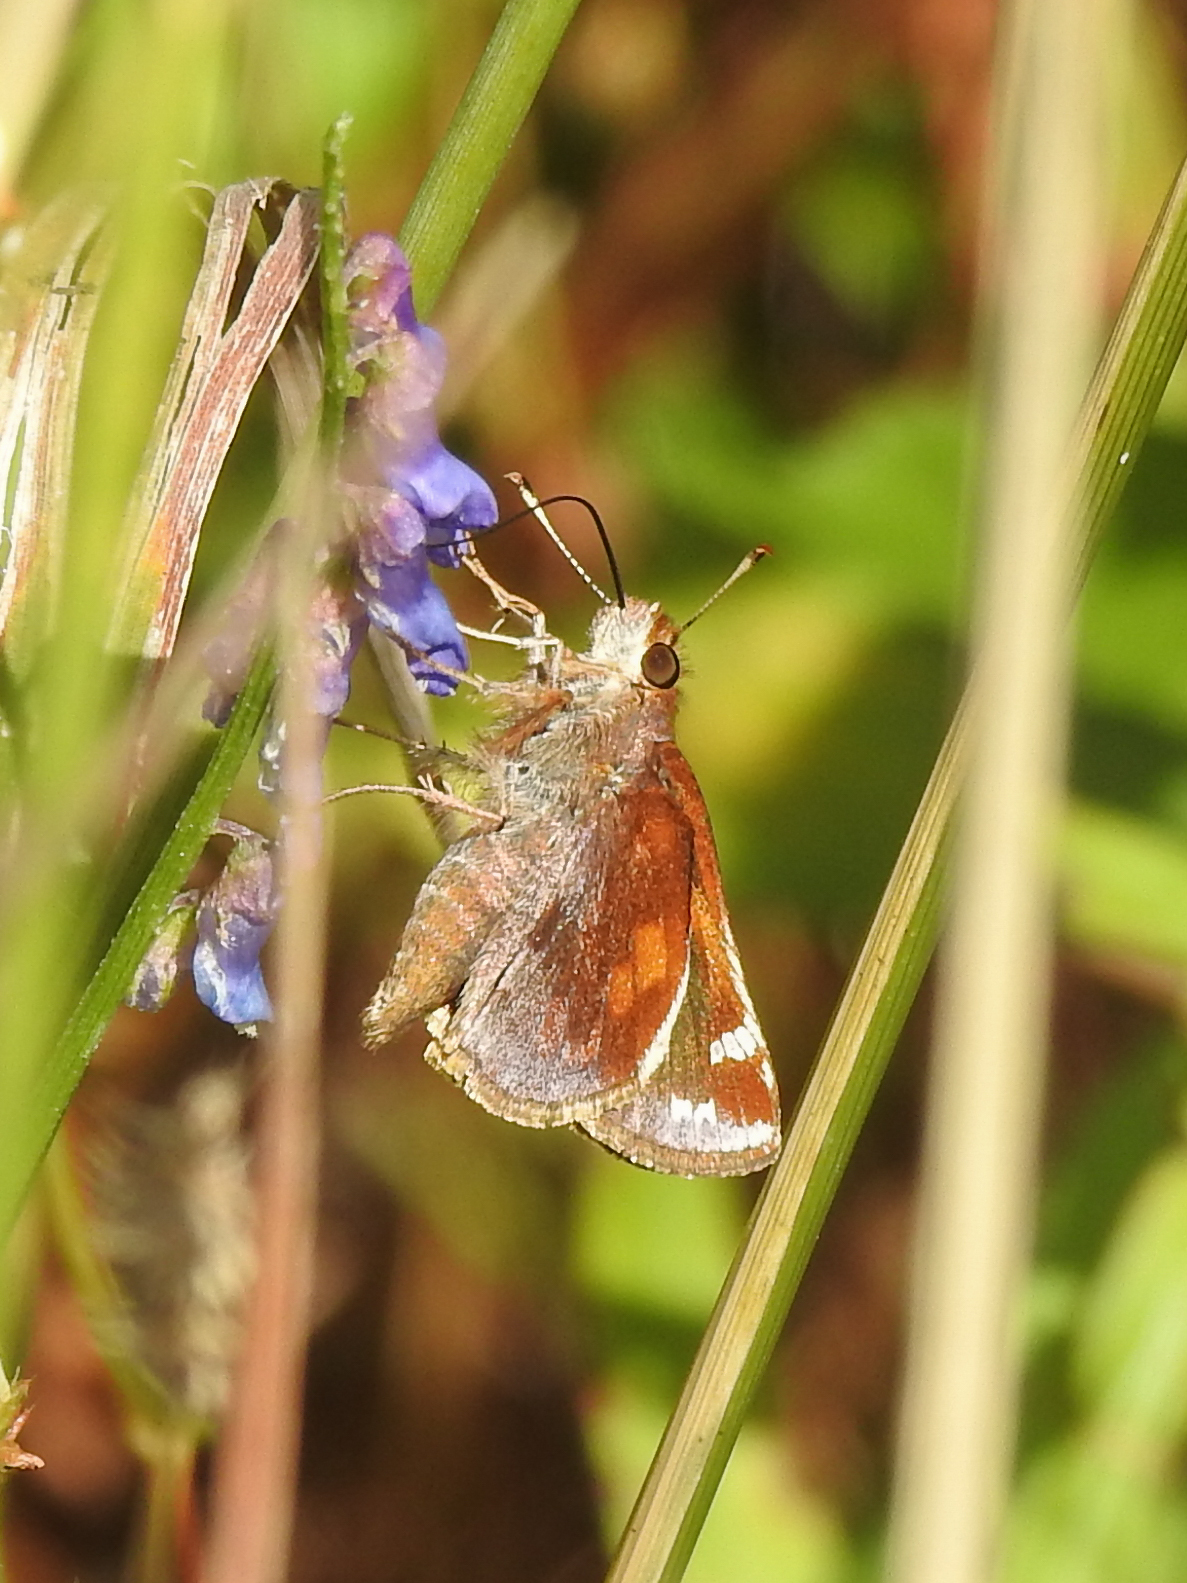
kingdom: Animalia
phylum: Arthropoda
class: Insecta
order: Lepidoptera
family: Hesperiidae
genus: Lon
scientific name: Lon zabulon
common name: Zabulon skipper
